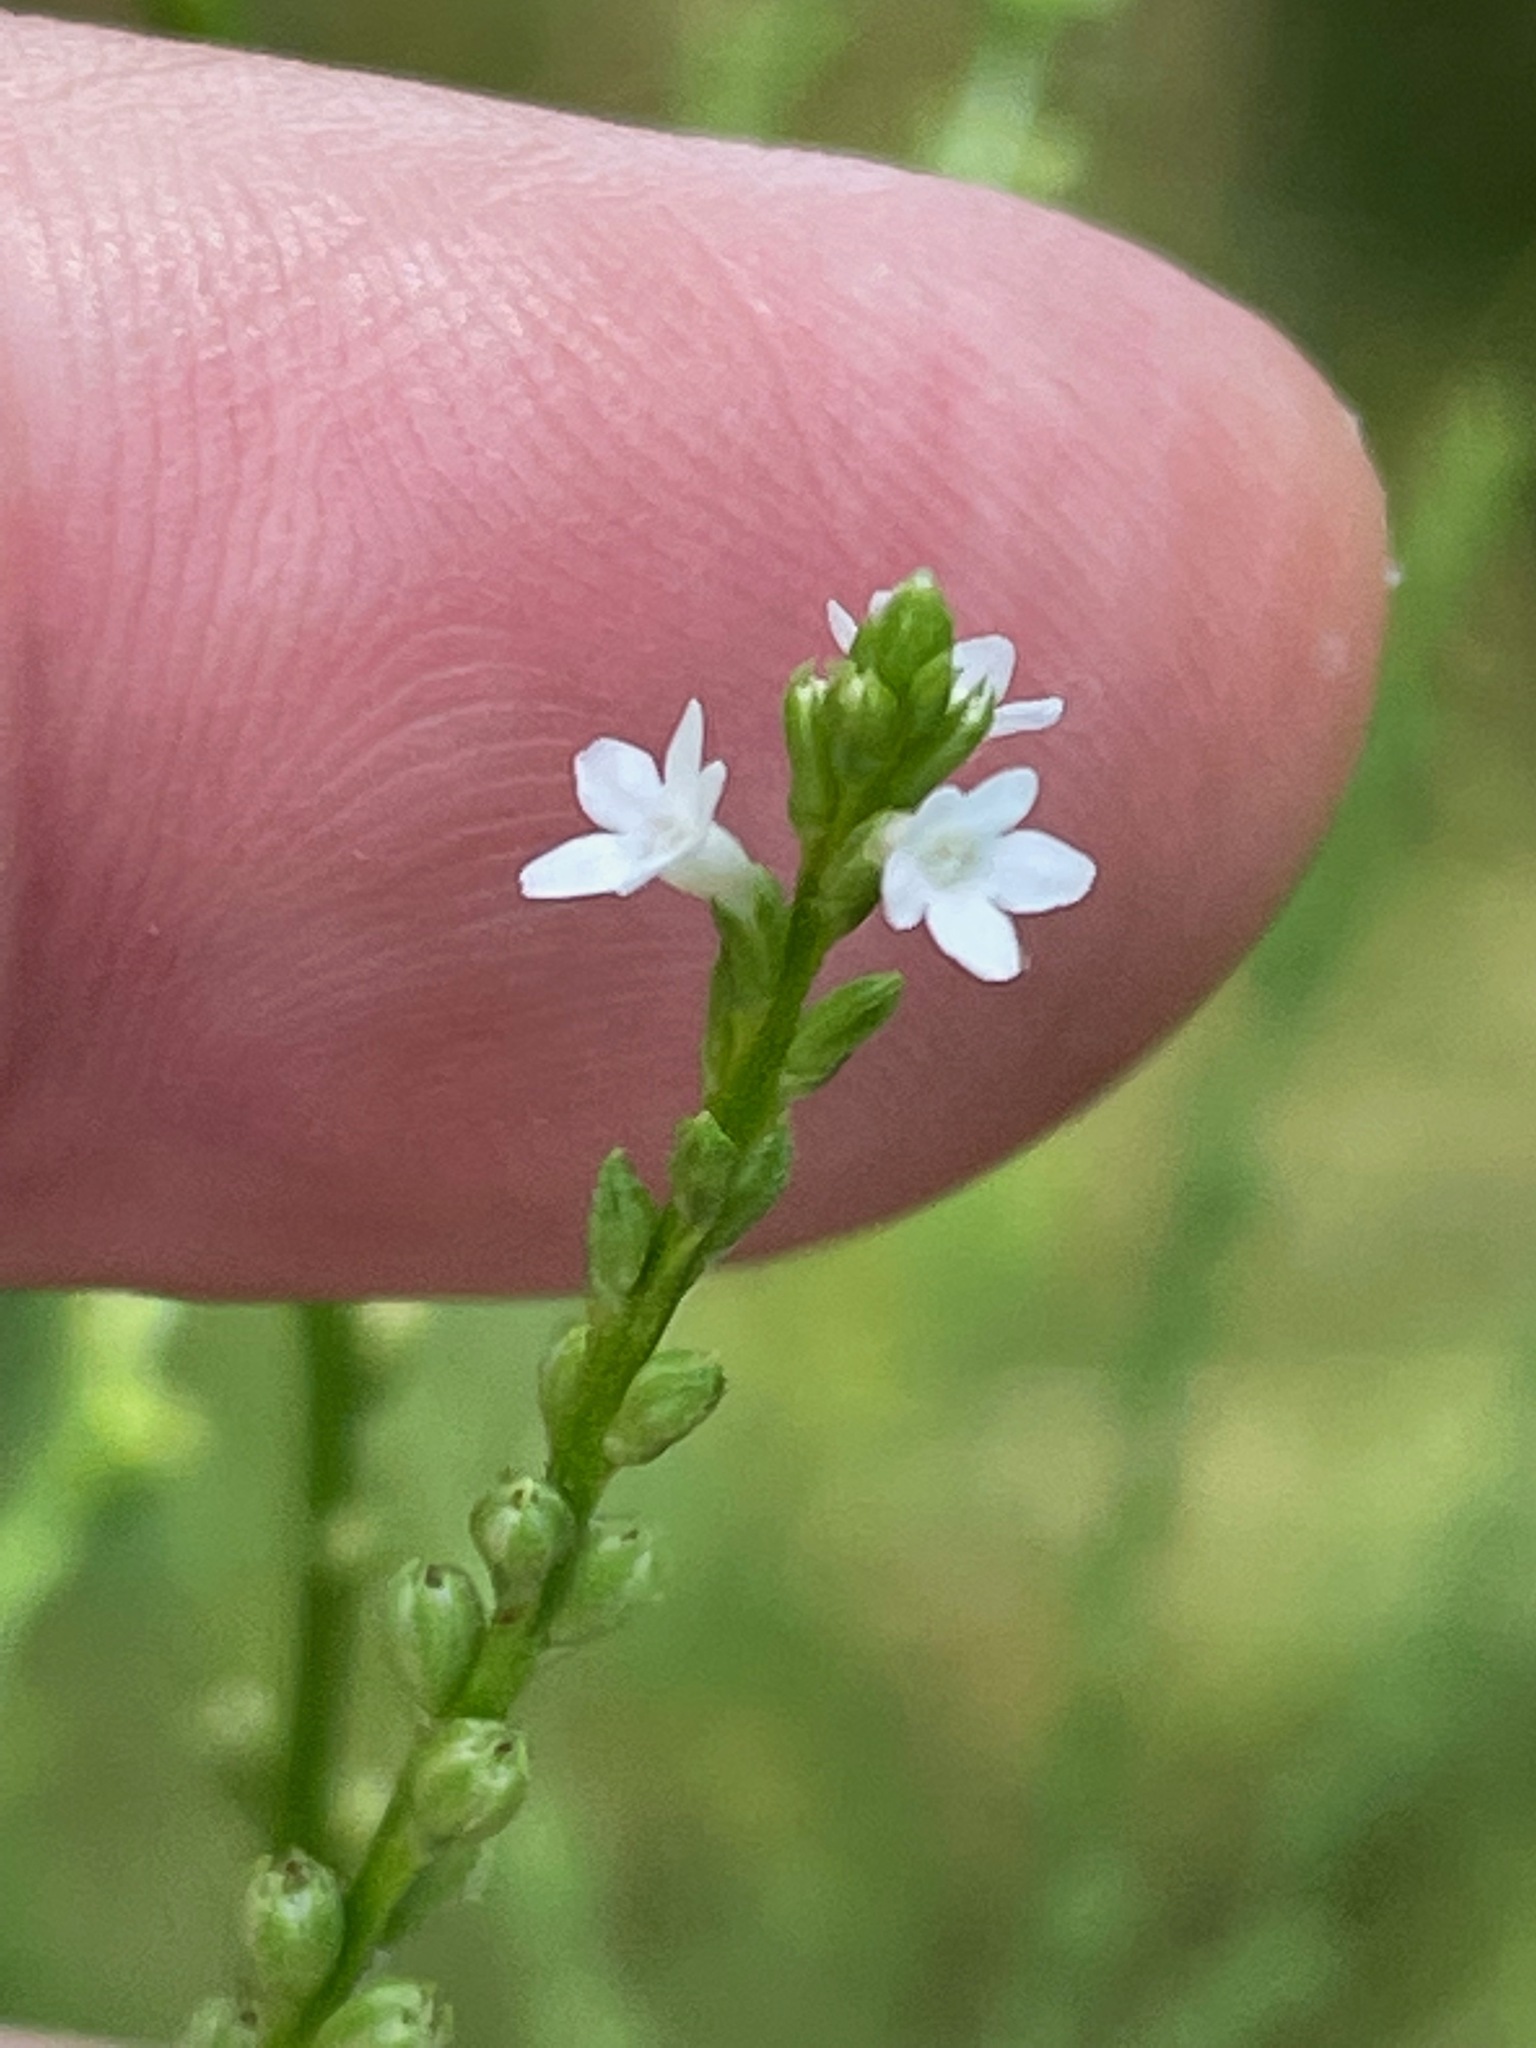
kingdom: Plantae
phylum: Tracheophyta
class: Magnoliopsida
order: Lamiales
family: Verbenaceae
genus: Verbena
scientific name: Verbena urticifolia
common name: Nettle-leaved vervain
